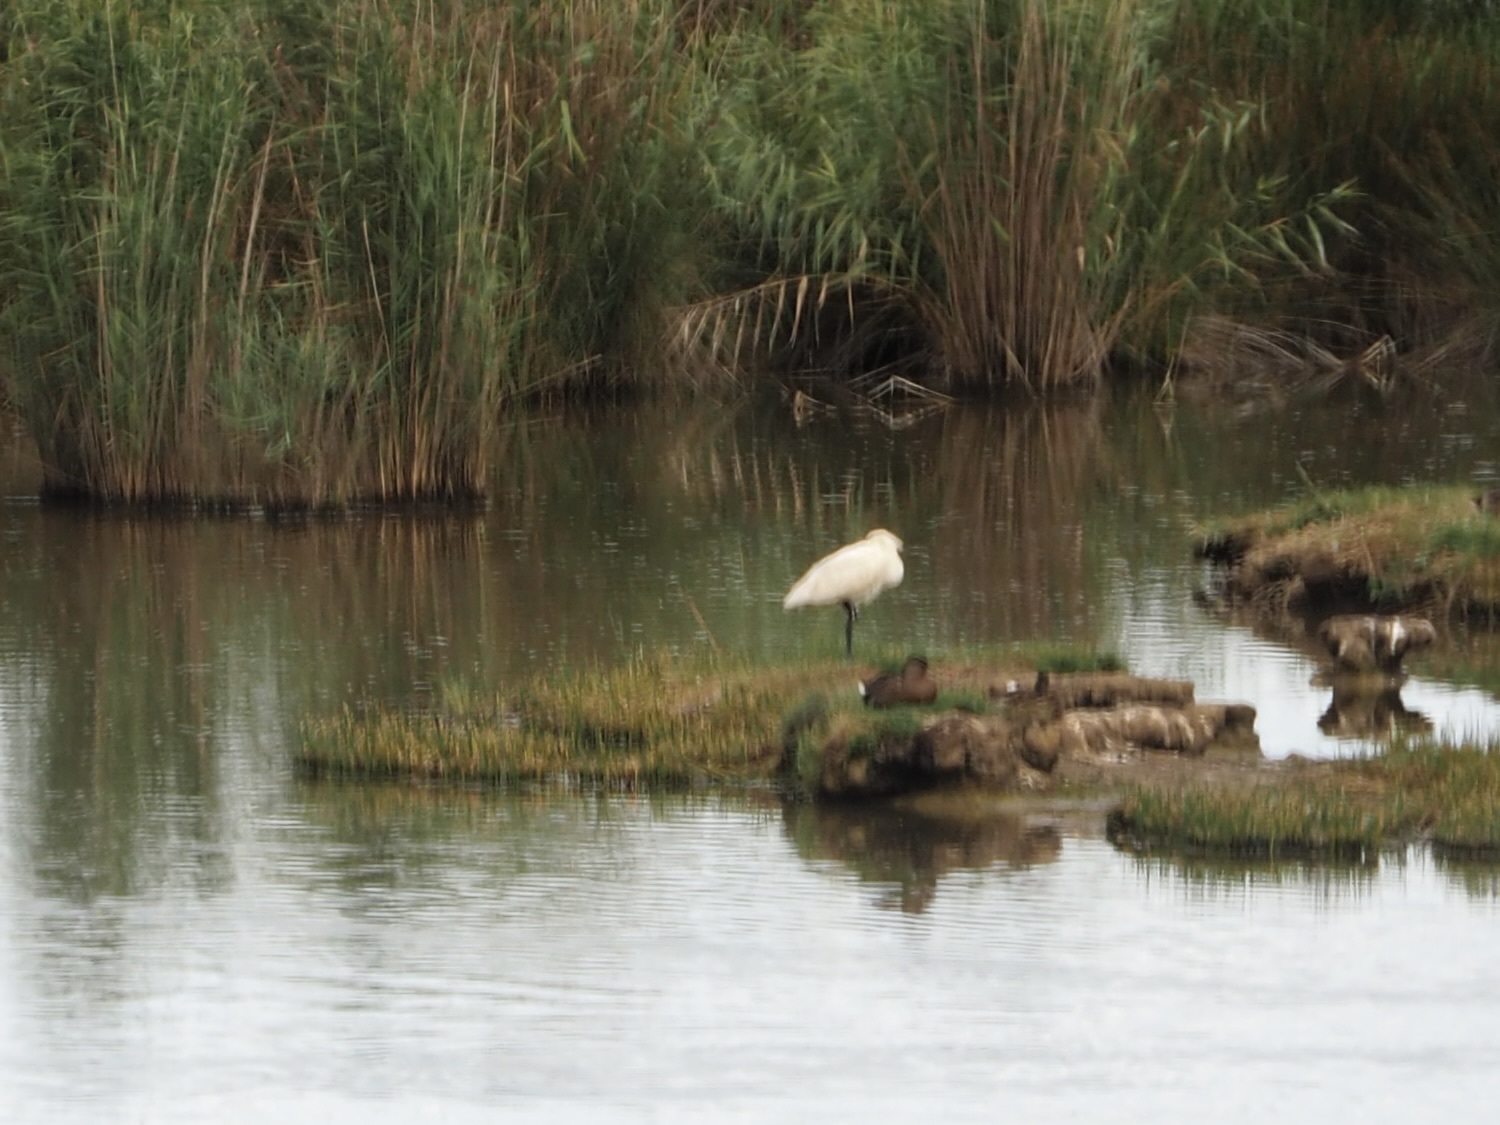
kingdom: Animalia
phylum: Chordata
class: Aves
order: Pelecaniformes
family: Threskiornithidae
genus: Platalea
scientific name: Platalea leucorodia
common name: Eurasian spoonbill
